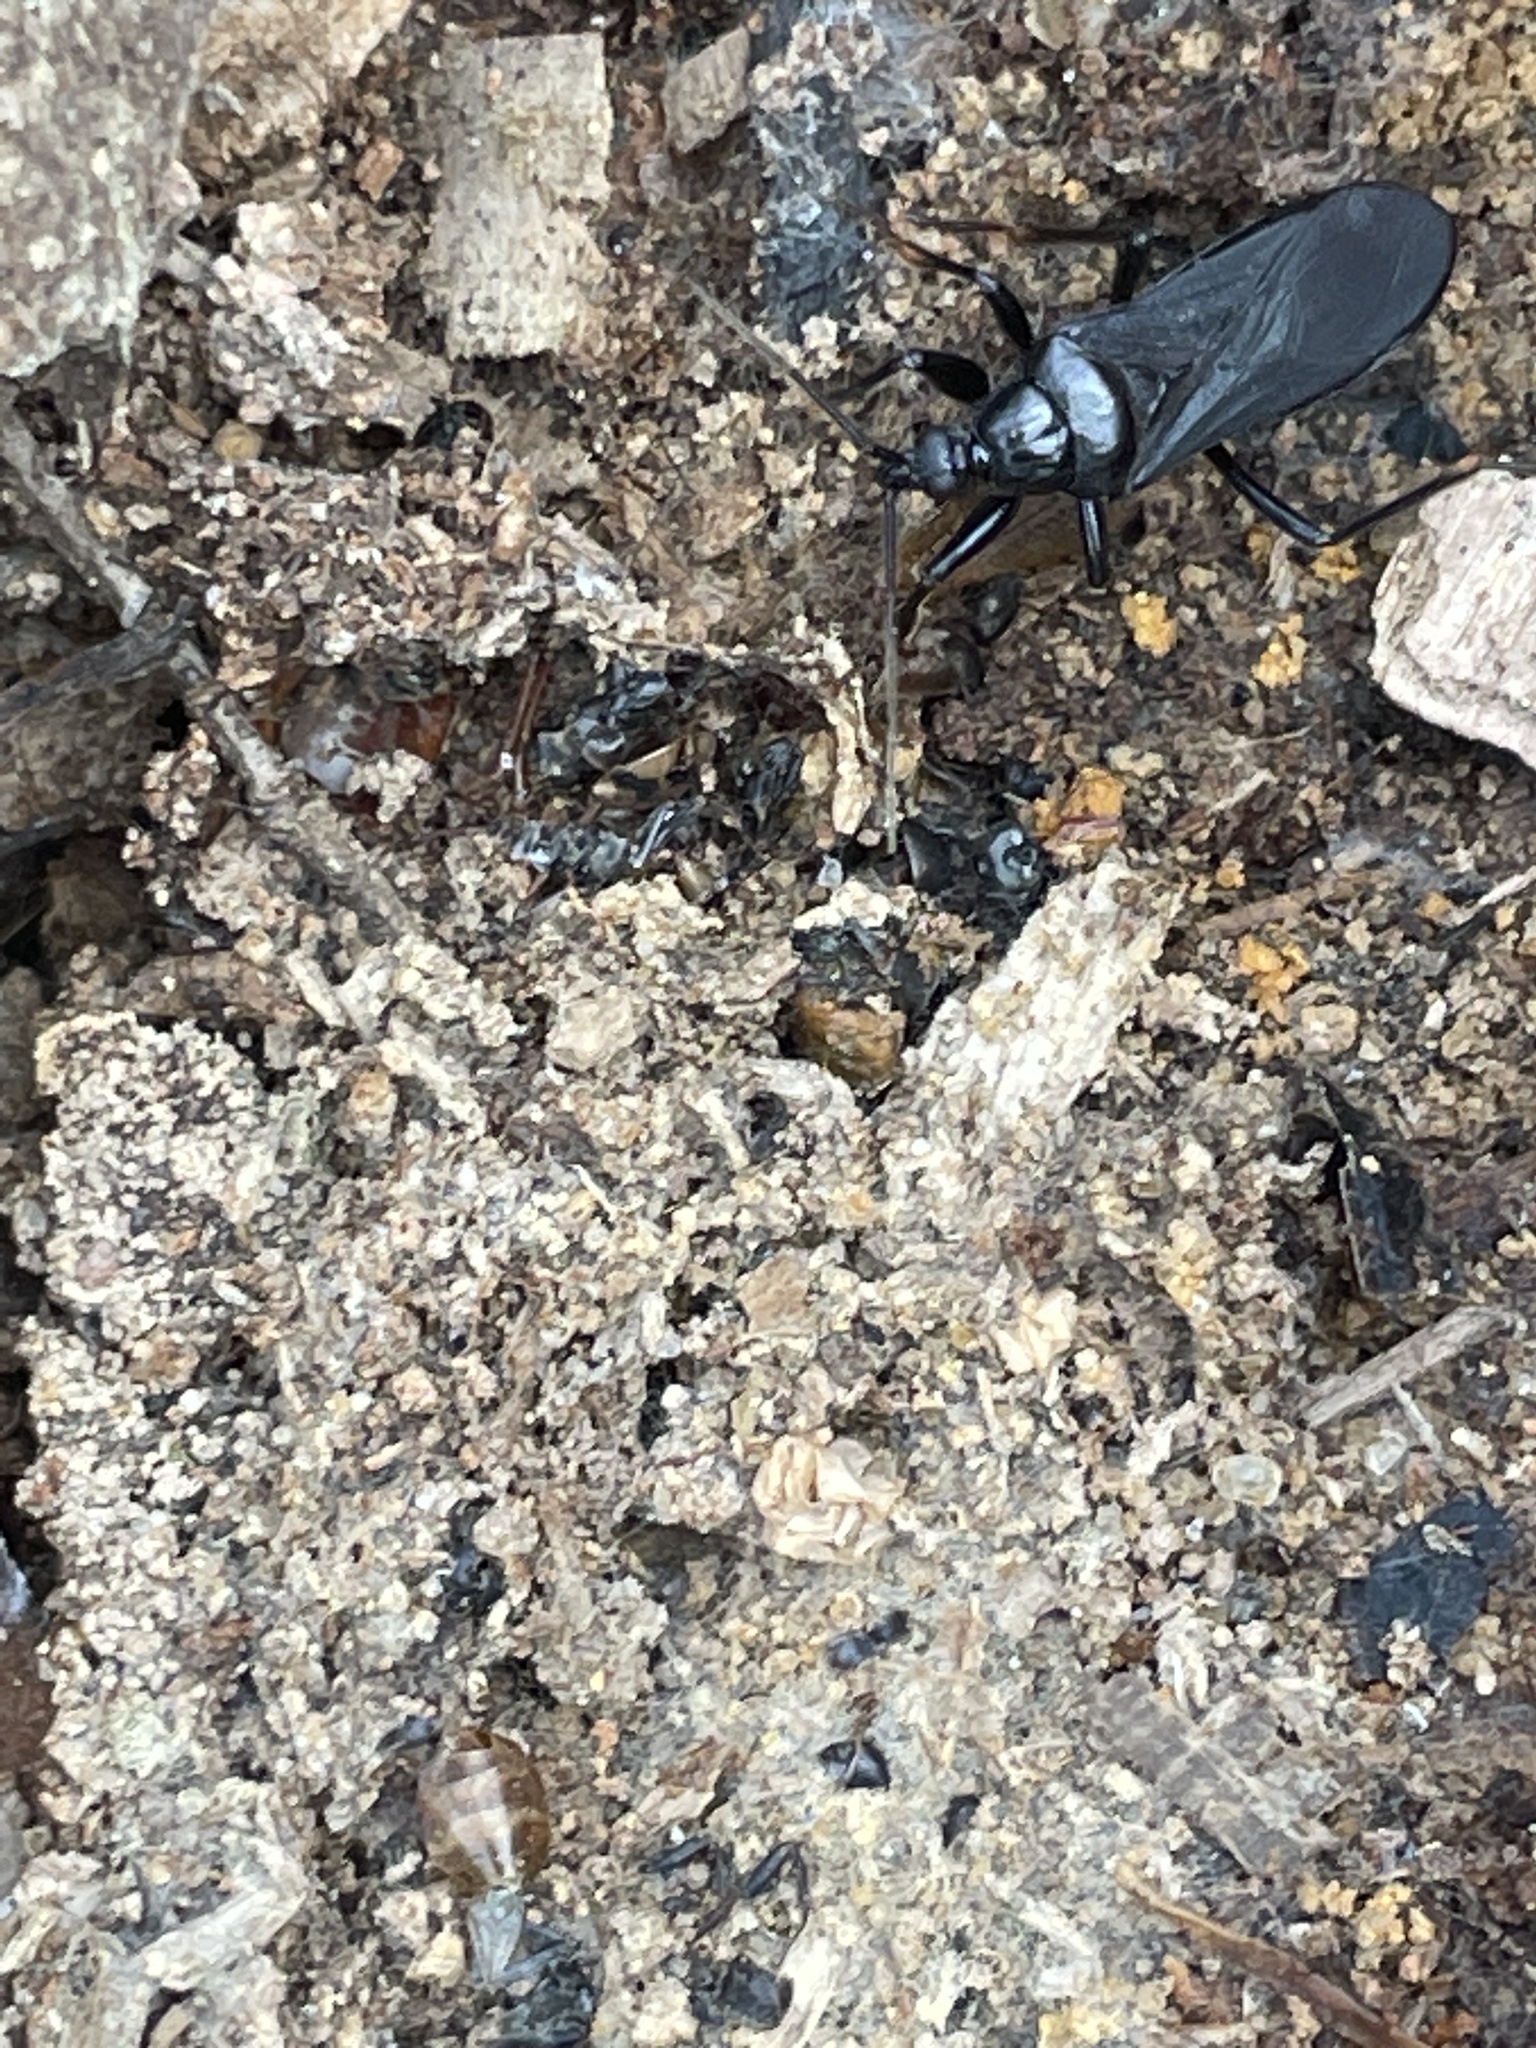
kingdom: Animalia
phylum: Arthropoda
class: Insecta
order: Hemiptera
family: Reduviidae
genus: Melanolestes
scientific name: Melanolestes picipes
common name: Assassin bug
